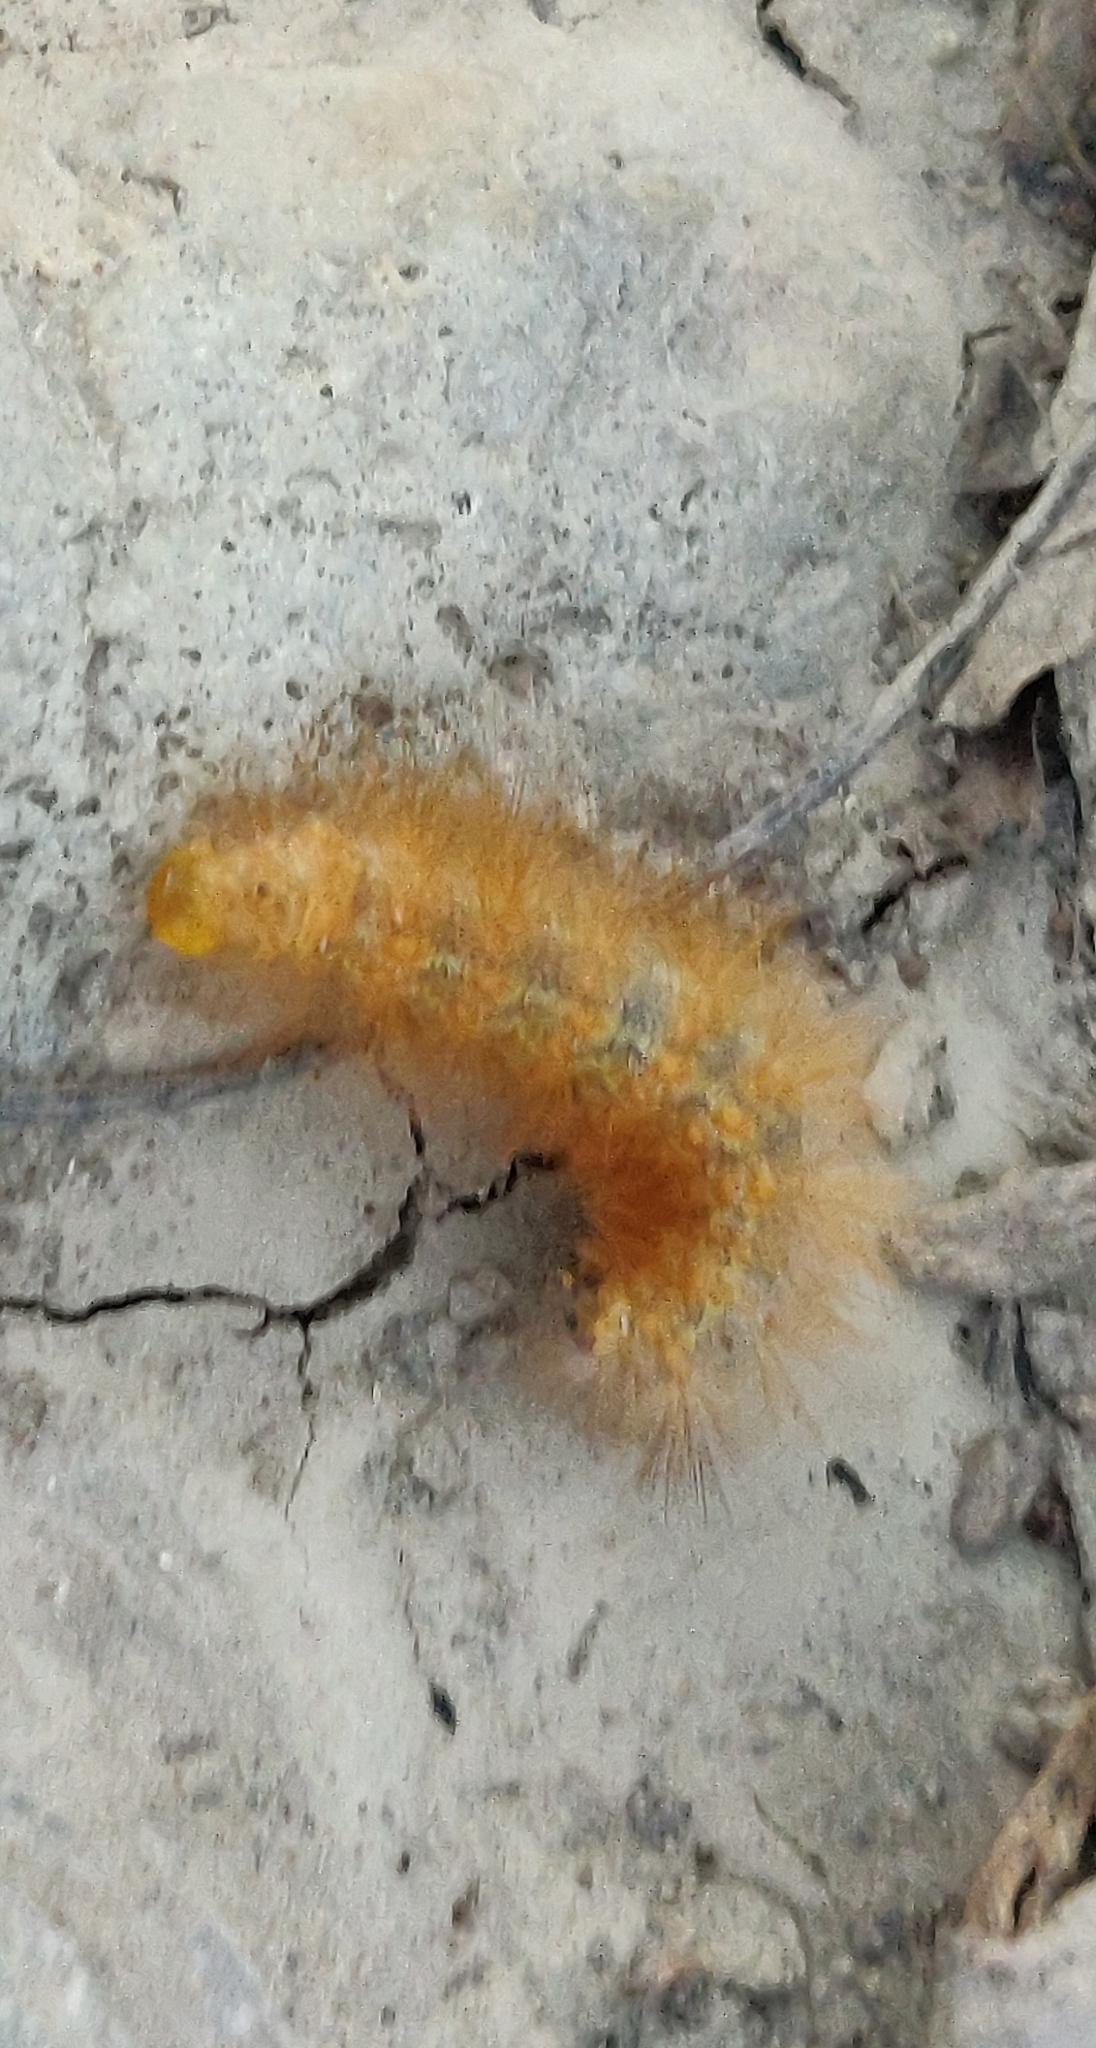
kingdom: Animalia
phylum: Arthropoda
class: Insecta
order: Lepidoptera
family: Erebidae
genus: Estigmene
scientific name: Estigmene acrea
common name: Salt marsh moth
